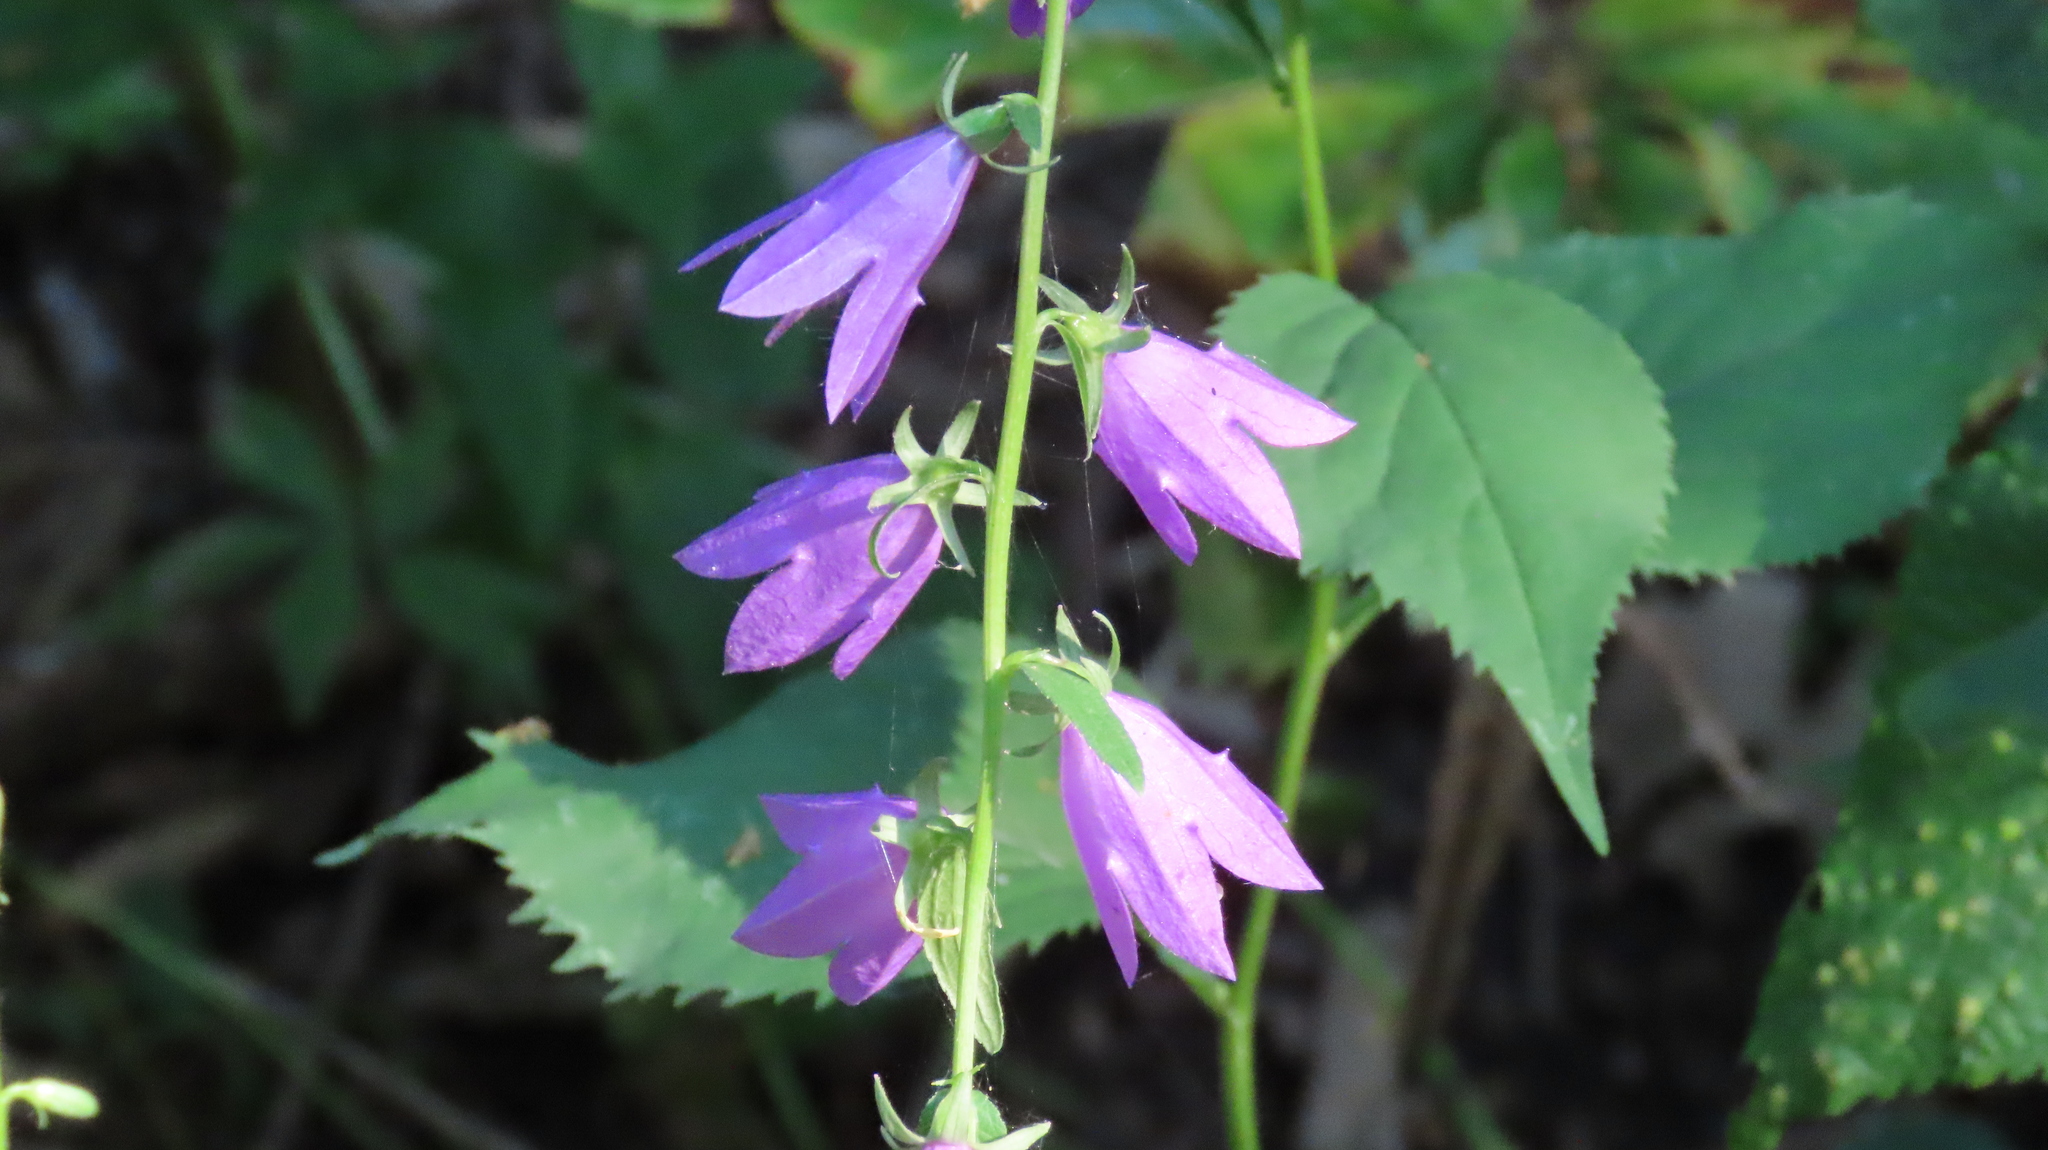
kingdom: Plantae
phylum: Tracheophyta
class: Magnoliopsida
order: Asterales
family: Campanulaceae
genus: Campanula
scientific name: Campanula rapunculoides
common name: Creeping bellflower
